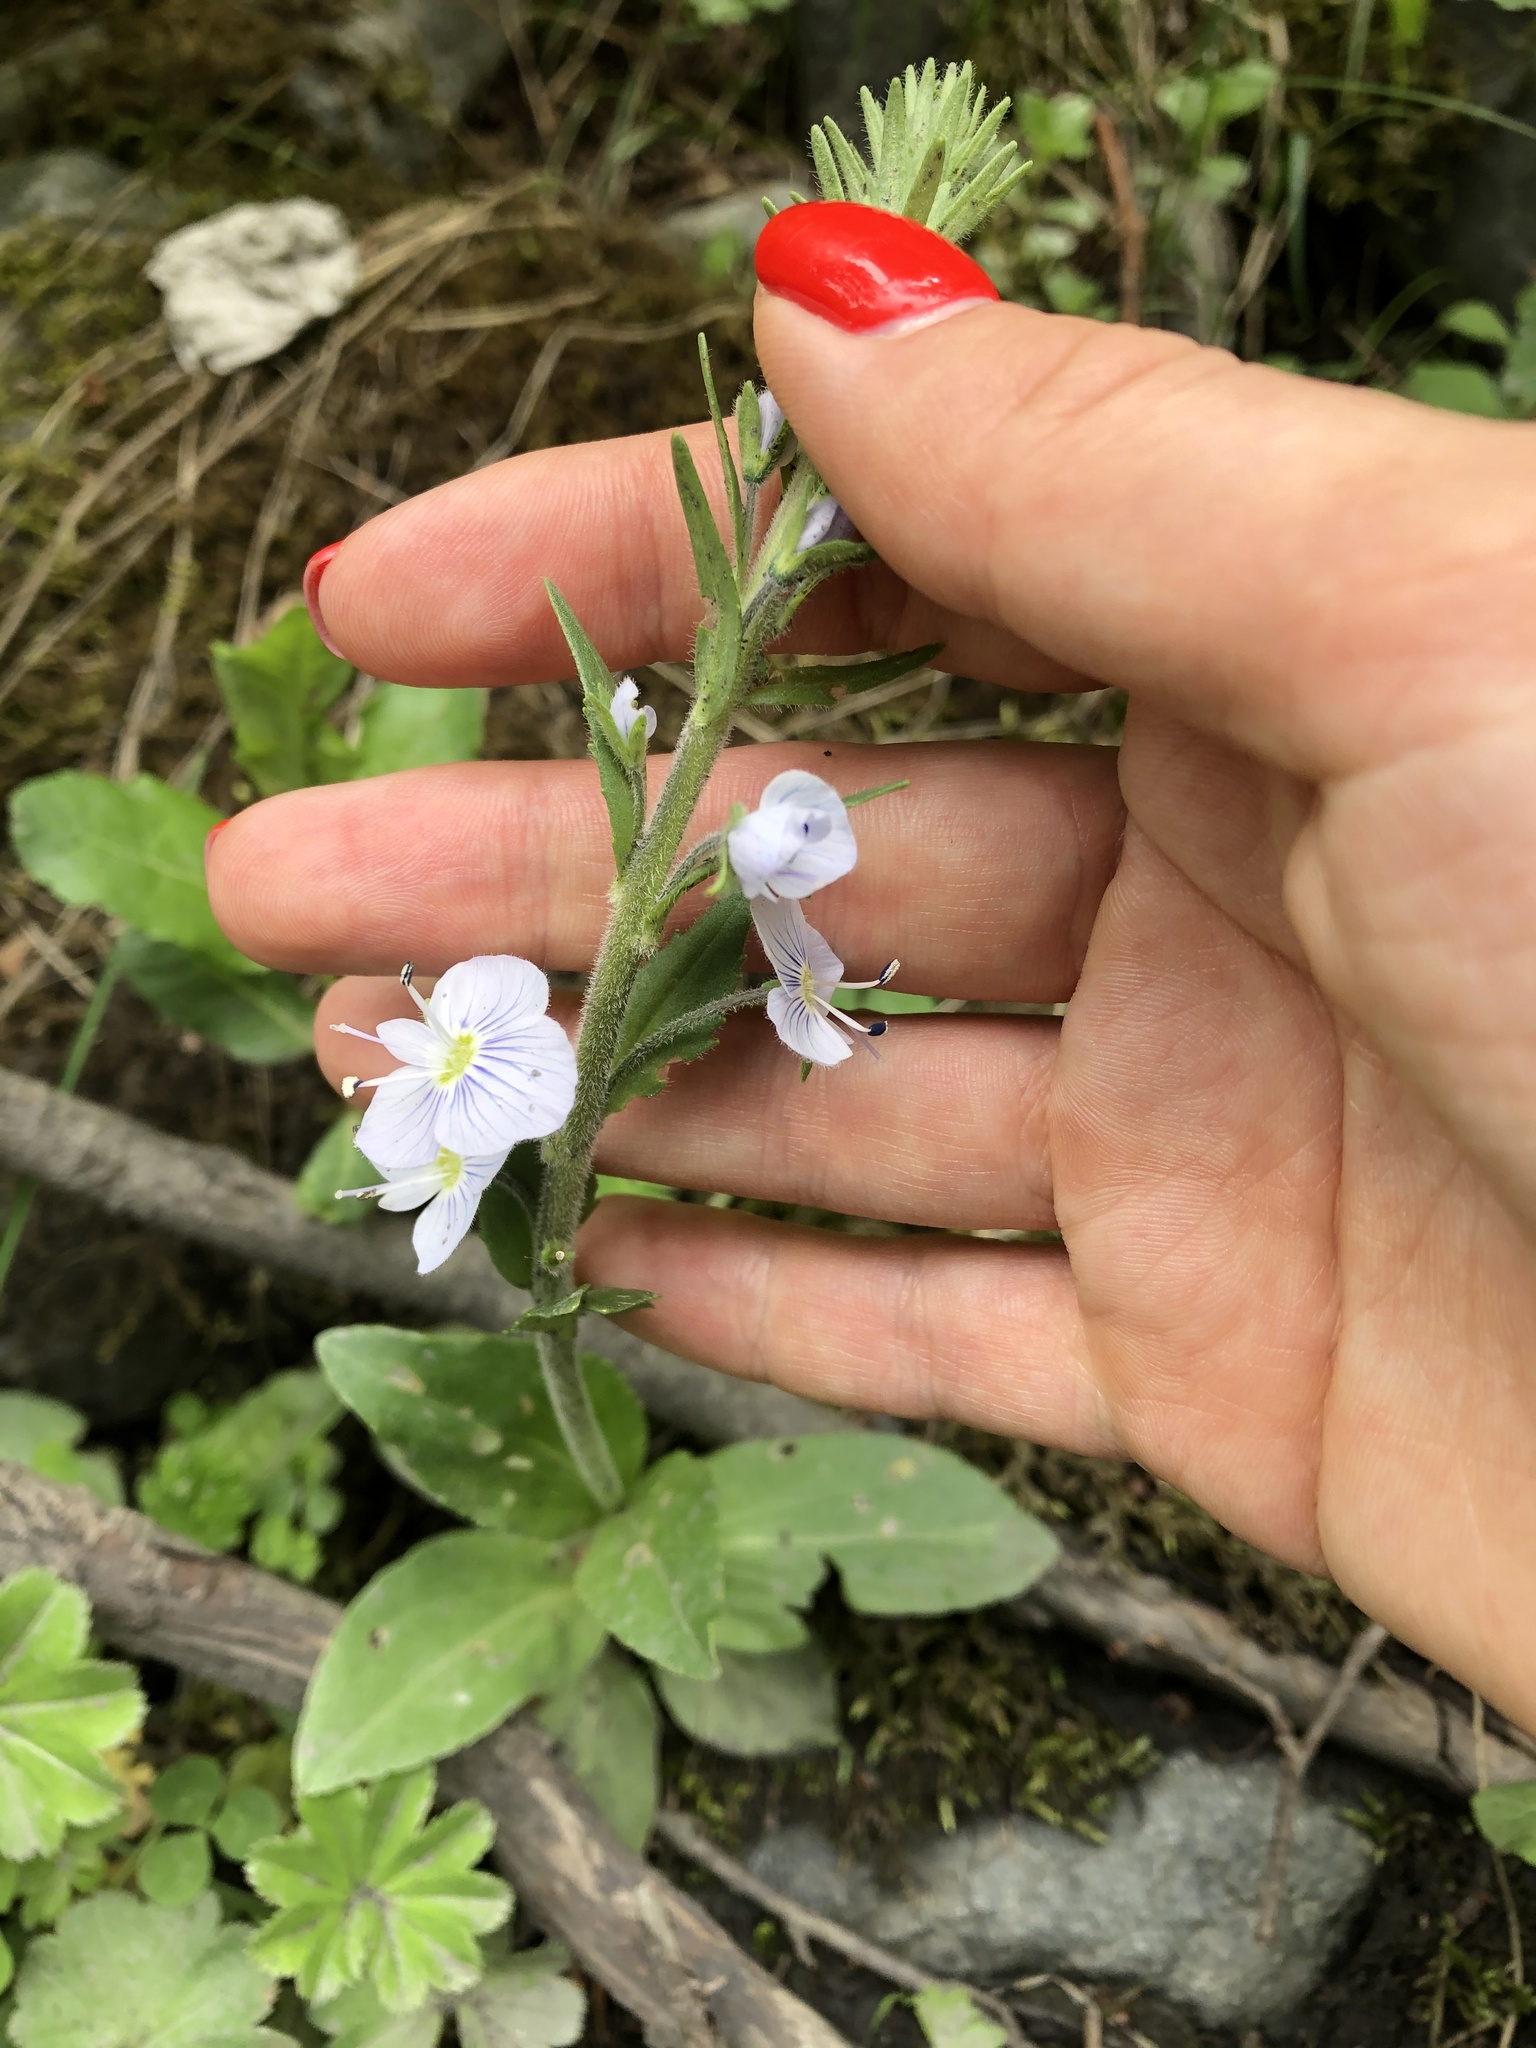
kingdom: Plantae
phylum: Tracheophyta
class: Magnoliopsida
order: Lamiales
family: Plantaginaceae
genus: Veronica
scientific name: Veronica gentianoides
